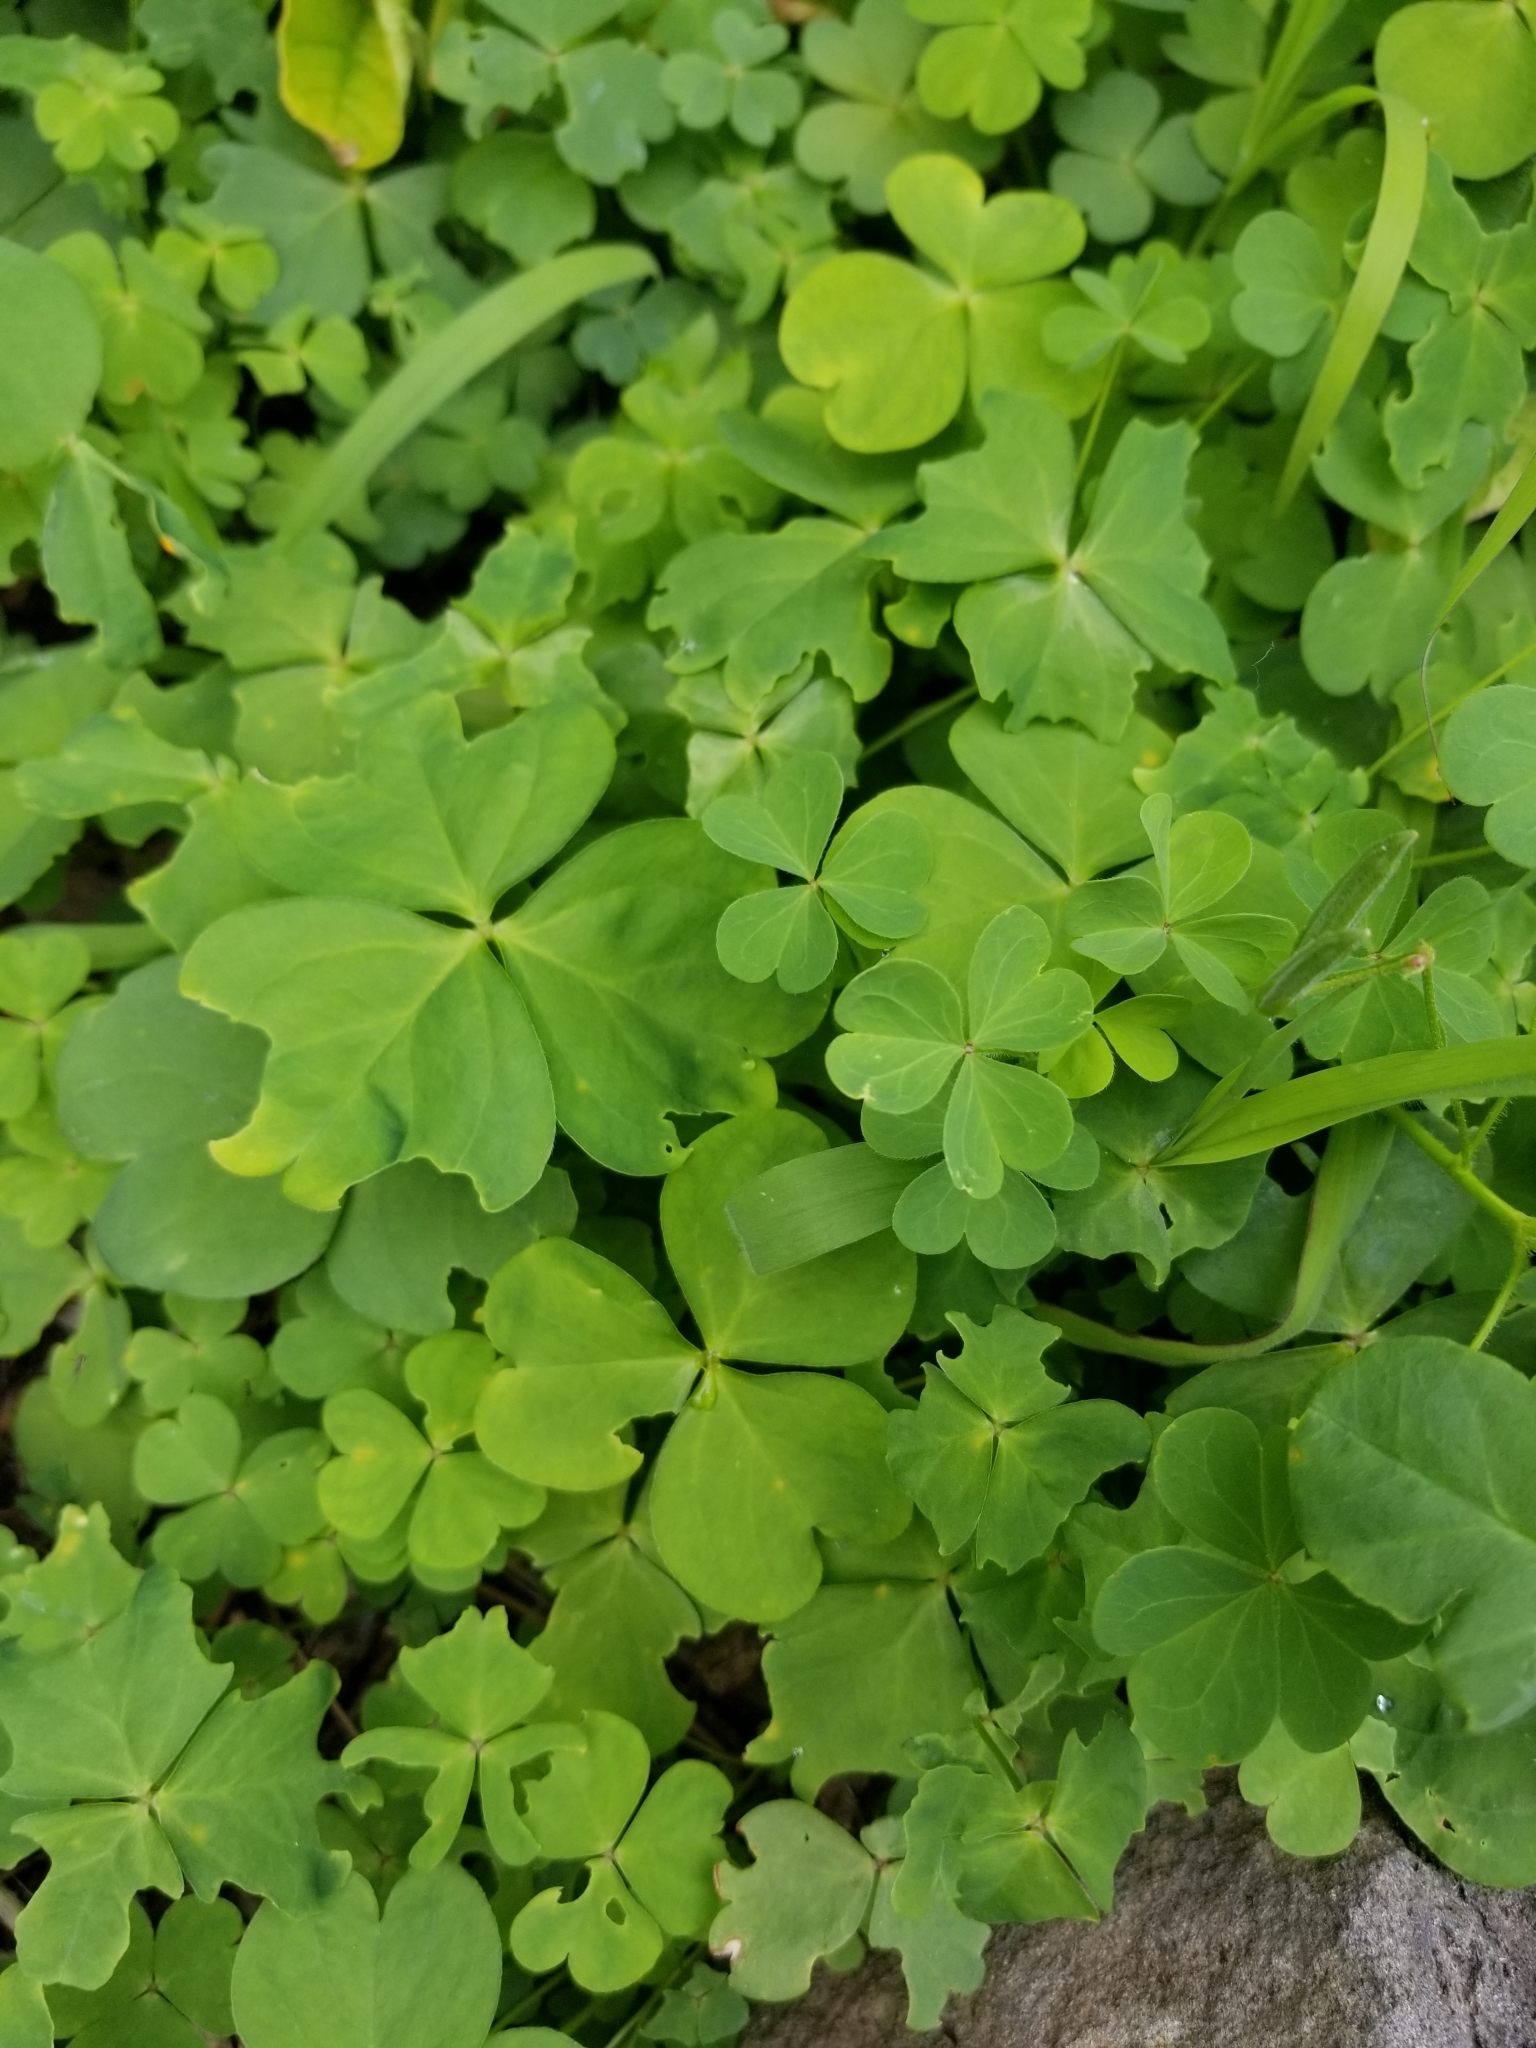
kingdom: Plantae
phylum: Tracheophyta
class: Magnoliopsida
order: Oxalidales
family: Oxalidaceae
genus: Oxalis
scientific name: Oxalis debilis
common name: Large-flowered pink-sorrel
